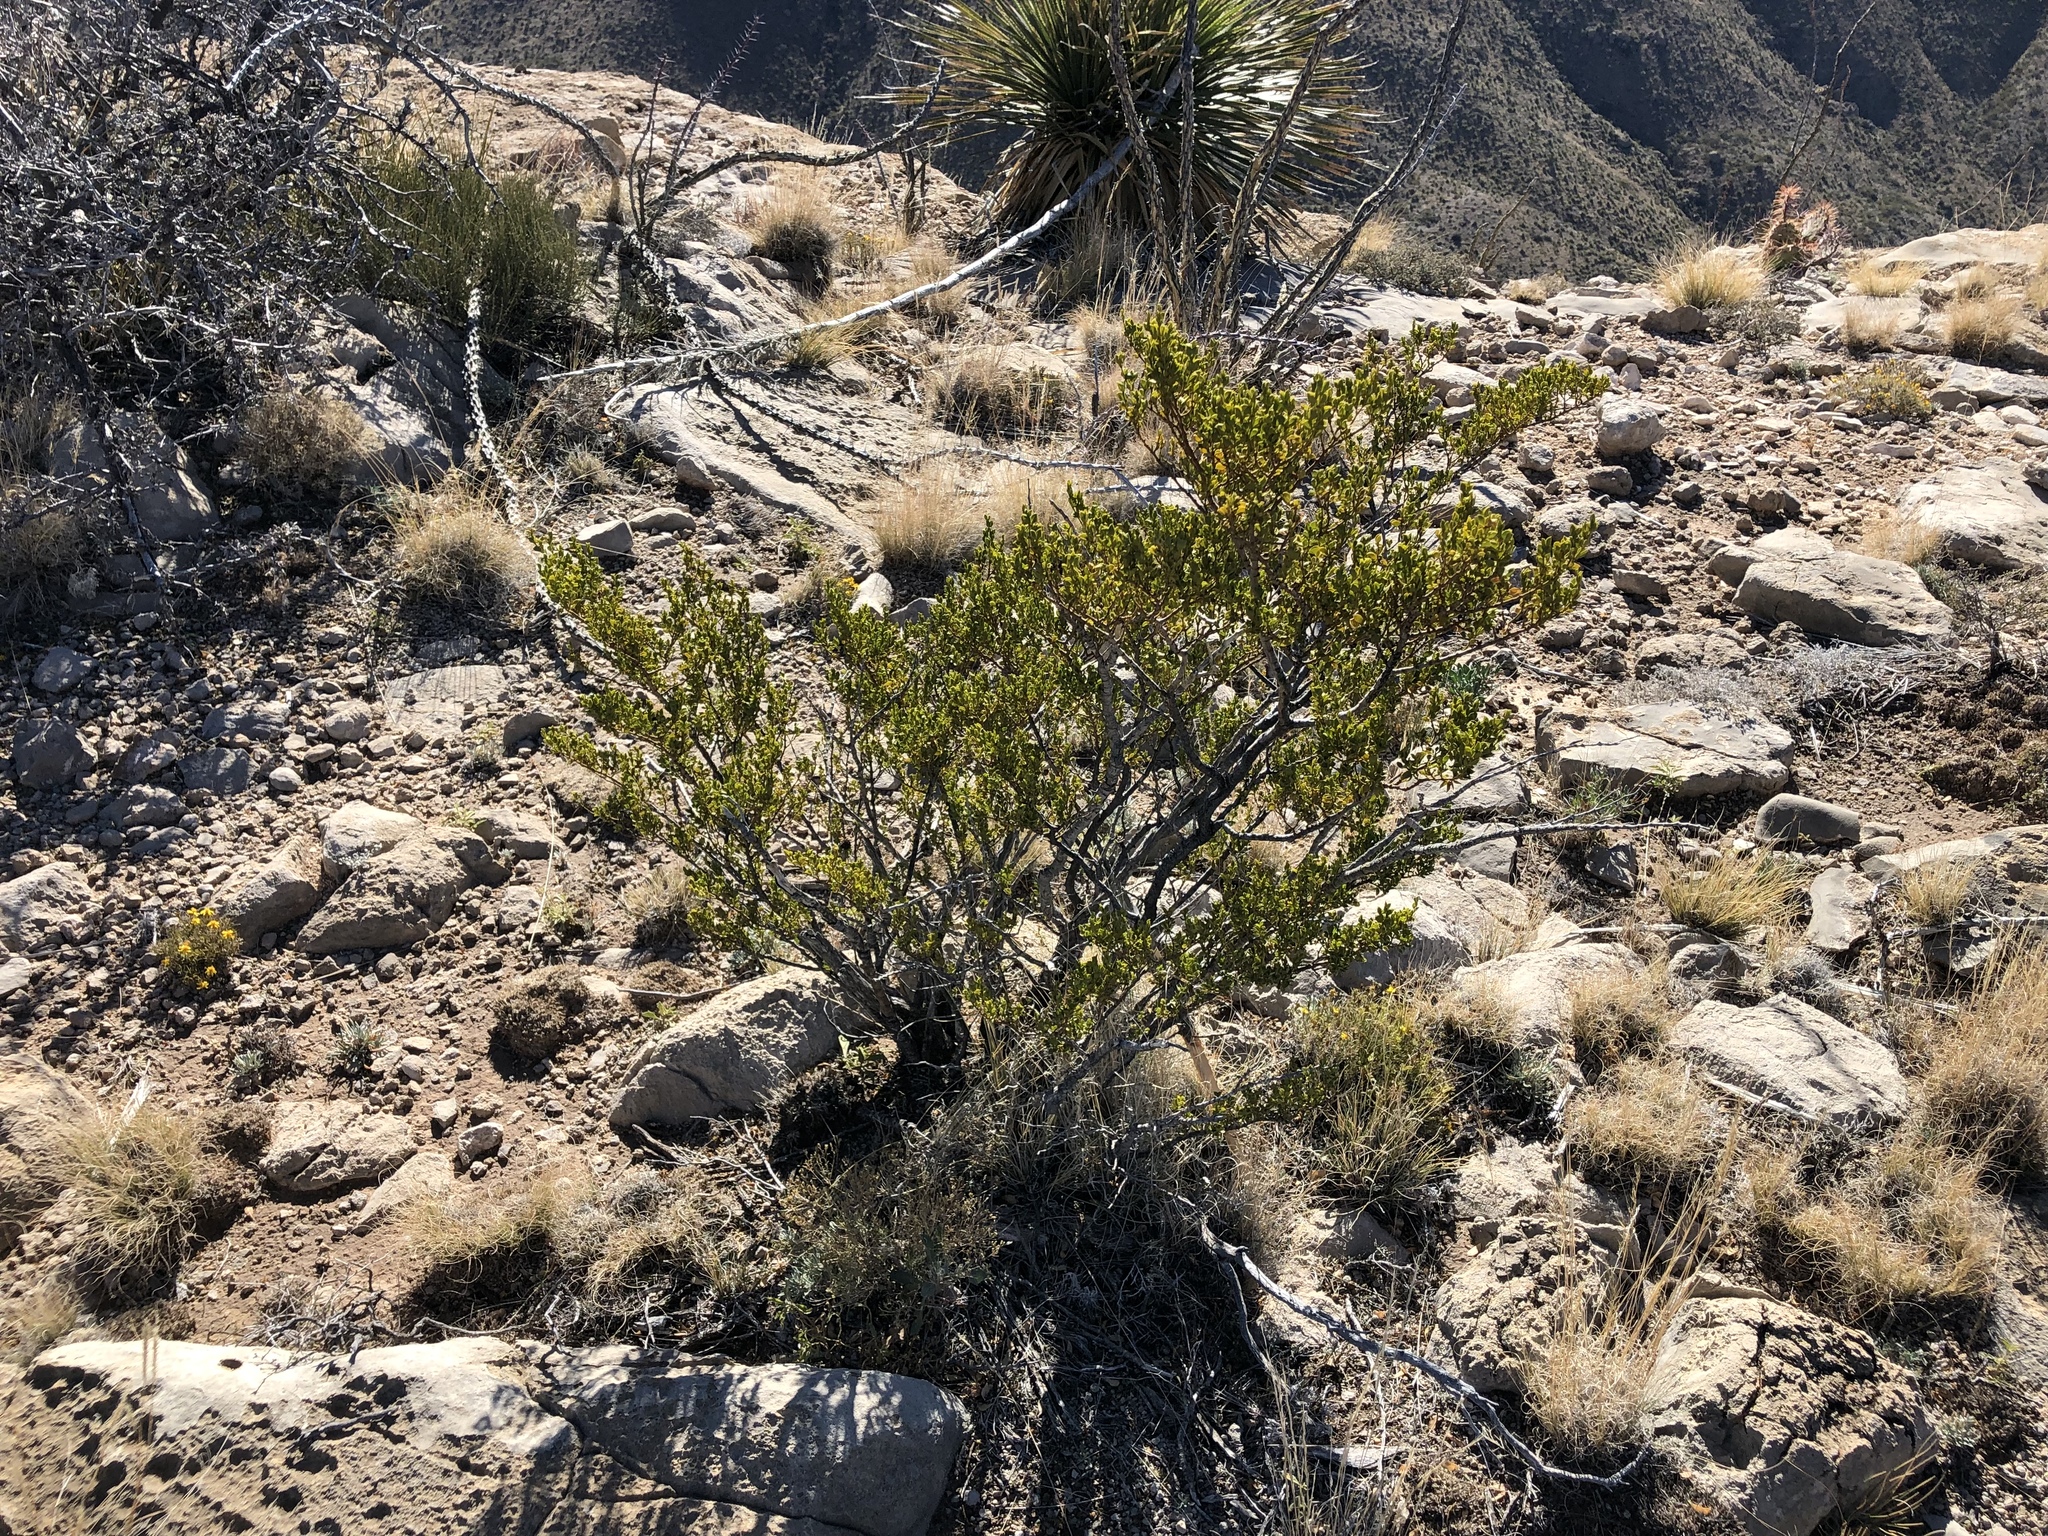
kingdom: Plantae
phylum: Tracheophyta
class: Magnoliopsida
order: Zygophyllales
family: Zygophyllaceae
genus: Larrea
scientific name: Larrea tridentata
